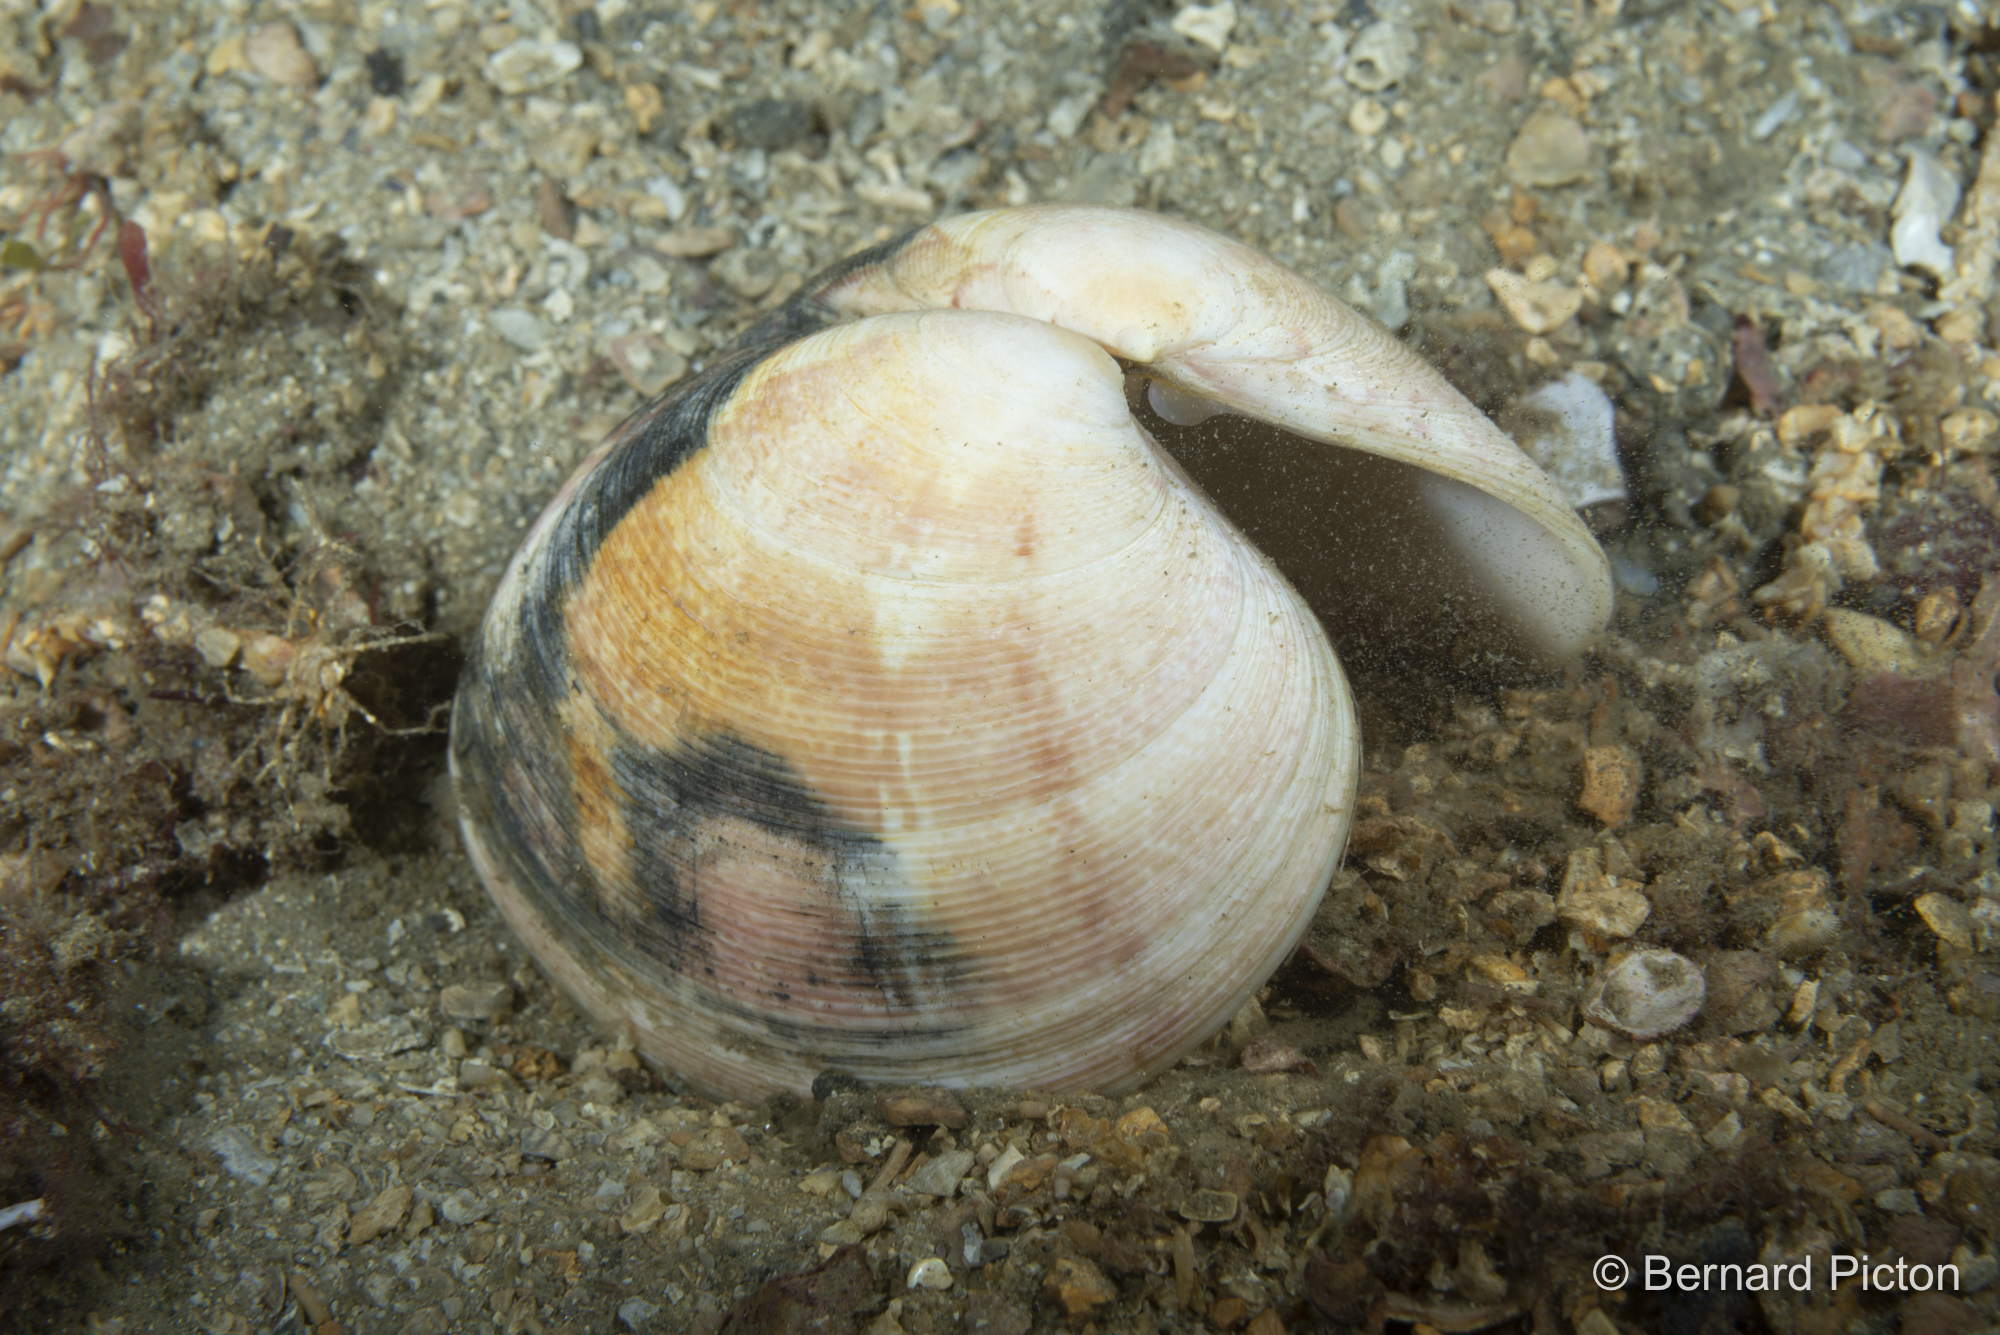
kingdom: Animalia
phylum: Mollusca
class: Bivalvia
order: Venerida
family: Veneridae
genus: Polititapes
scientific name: Polititapes rhomboides
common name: Banded carpet shell
